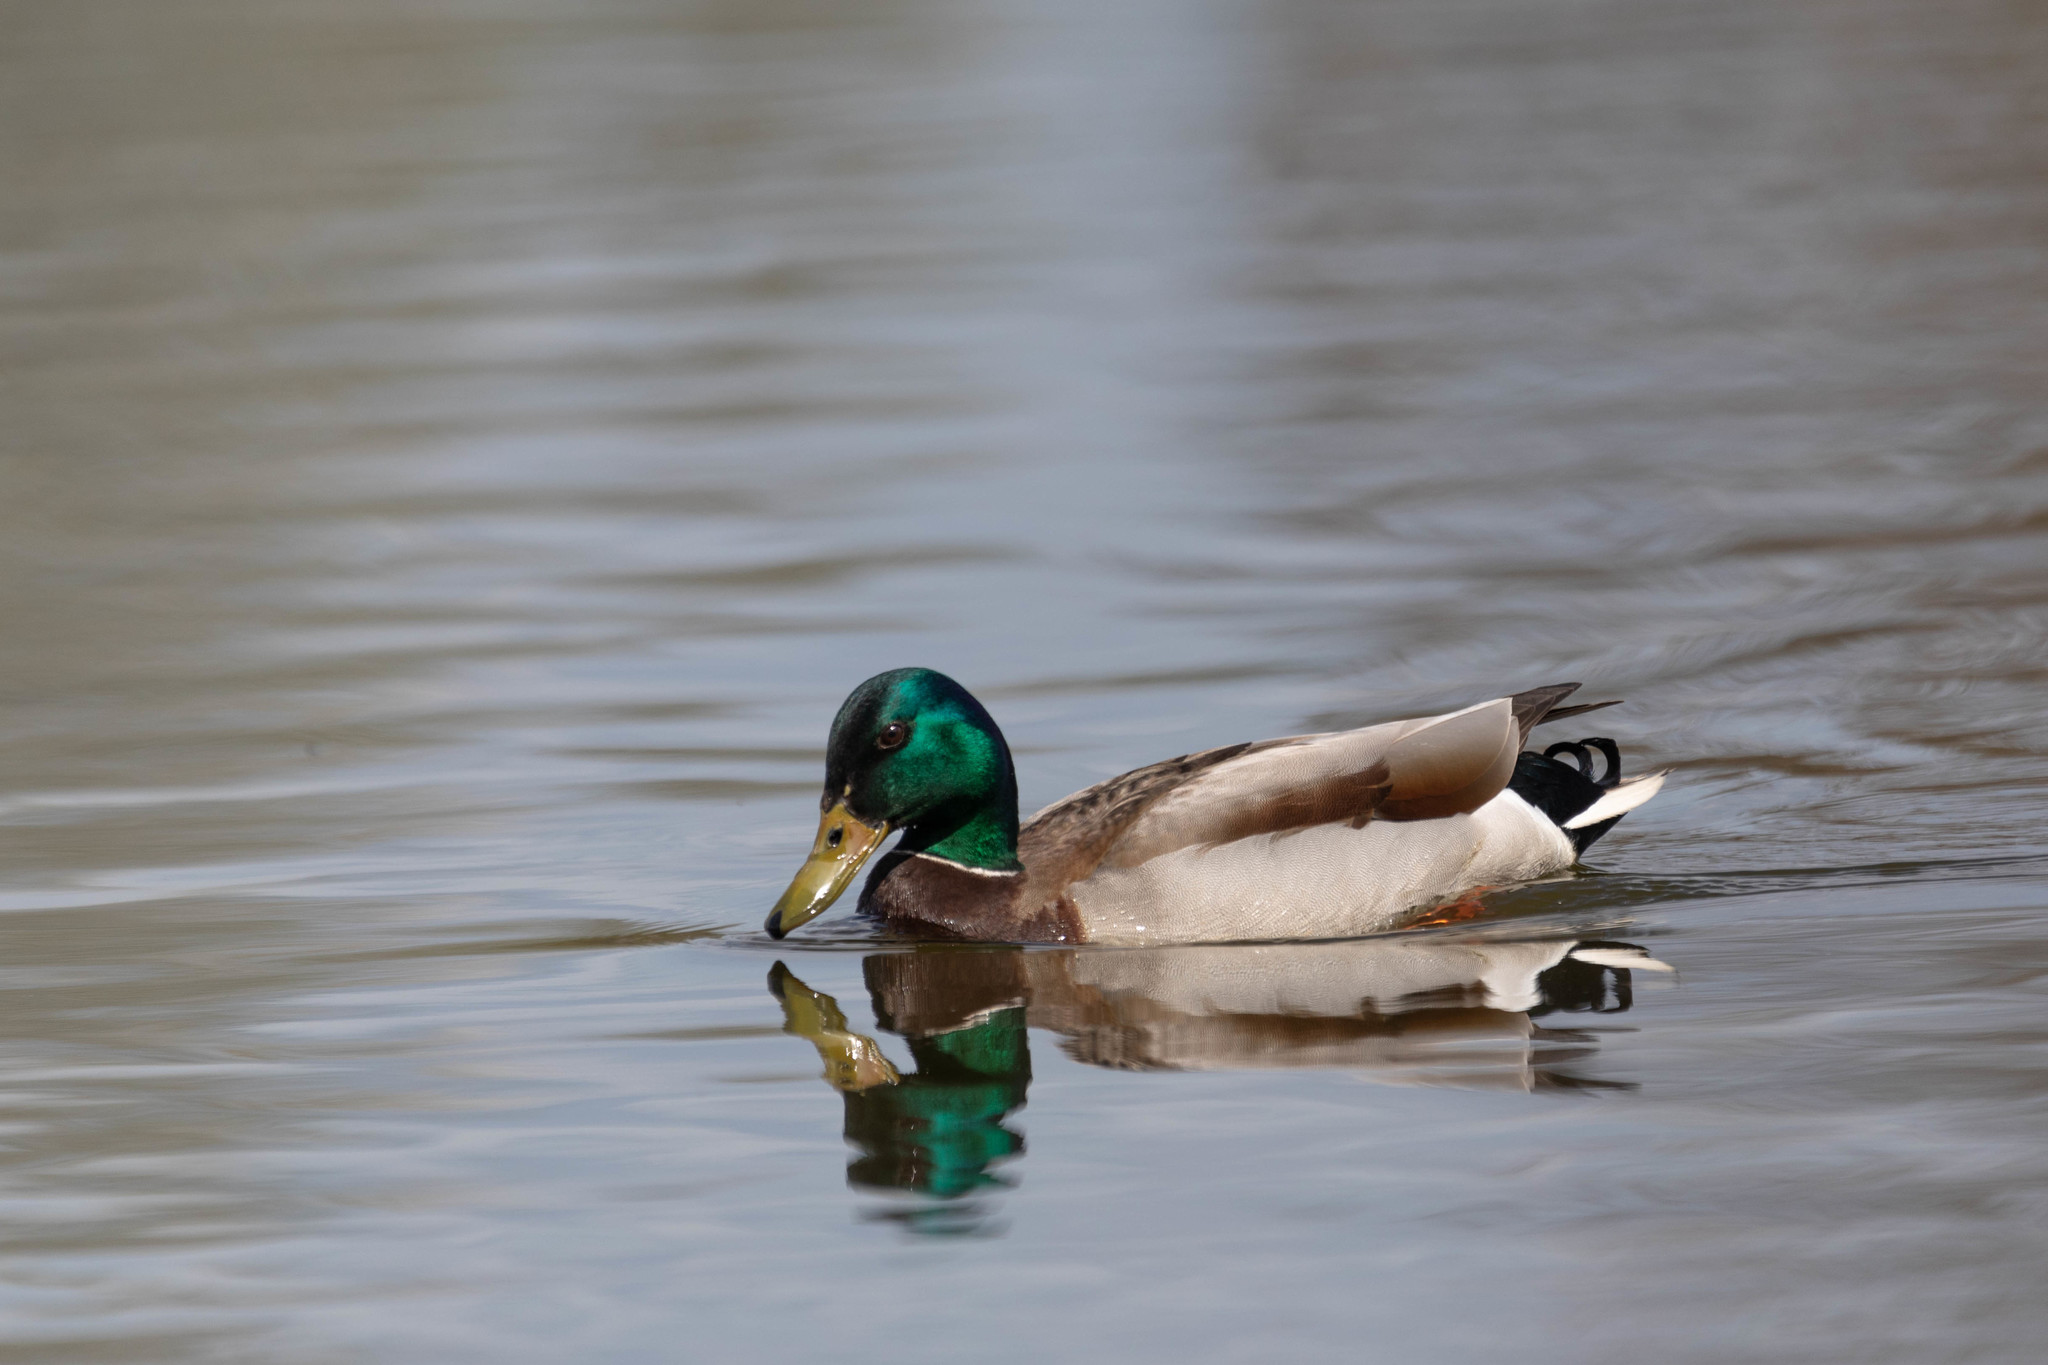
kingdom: Animalia
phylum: Chordata
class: Aves
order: Anseriformes
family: Anatidae
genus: Anas
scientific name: Anas platyrhynchos
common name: Mallard
